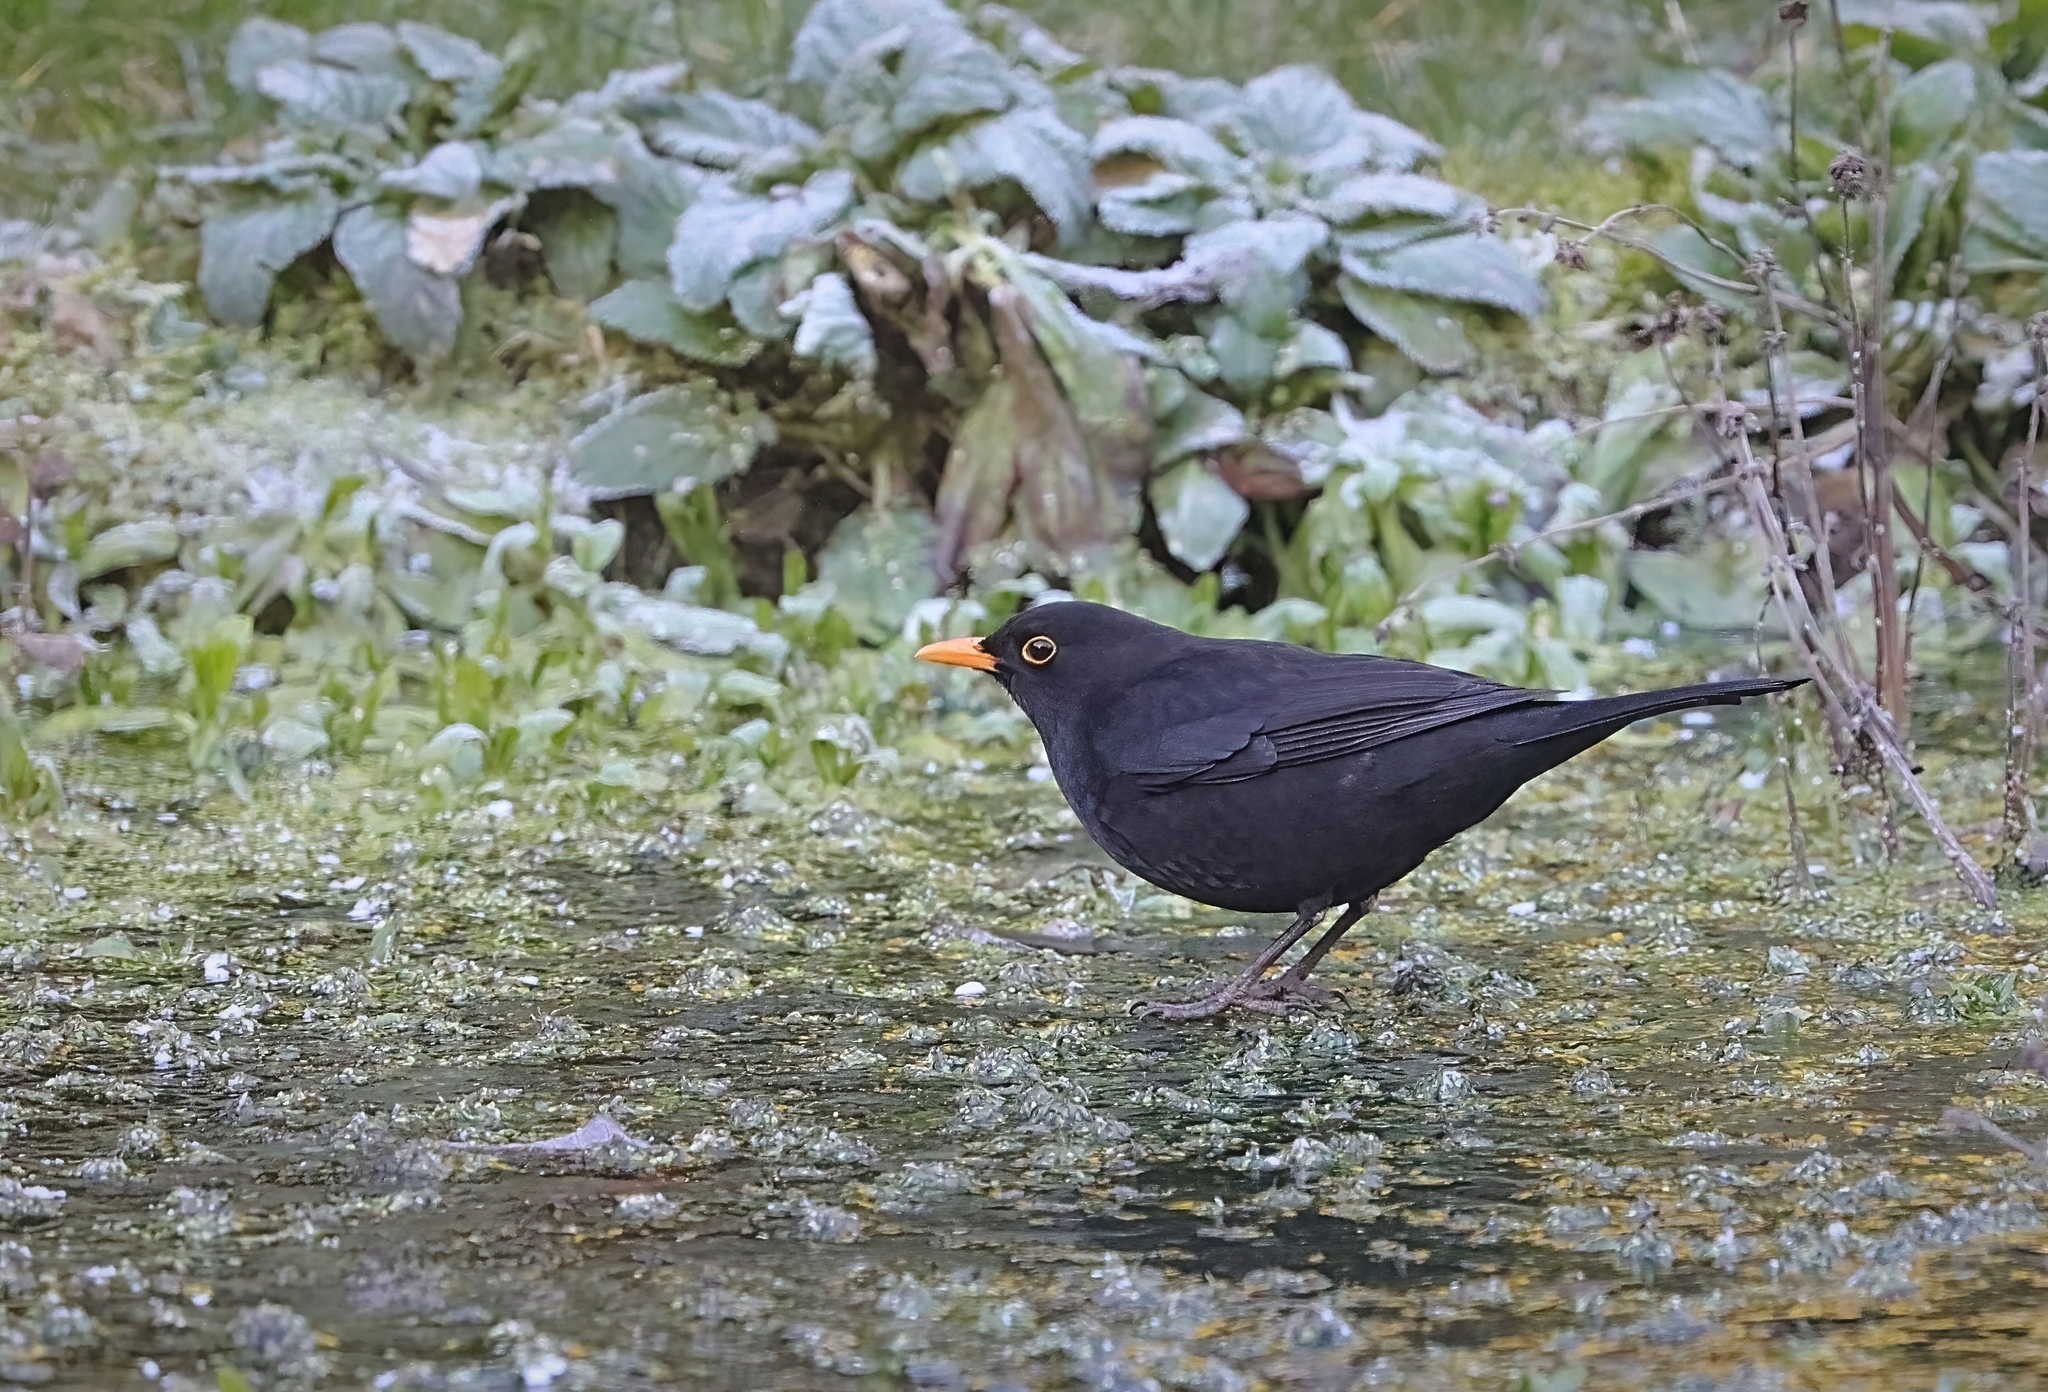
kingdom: Animalia
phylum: Chordata
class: Aves
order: Passeriformes
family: Turdidae
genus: Turdus
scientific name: Turdus merula
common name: Common blackbird
